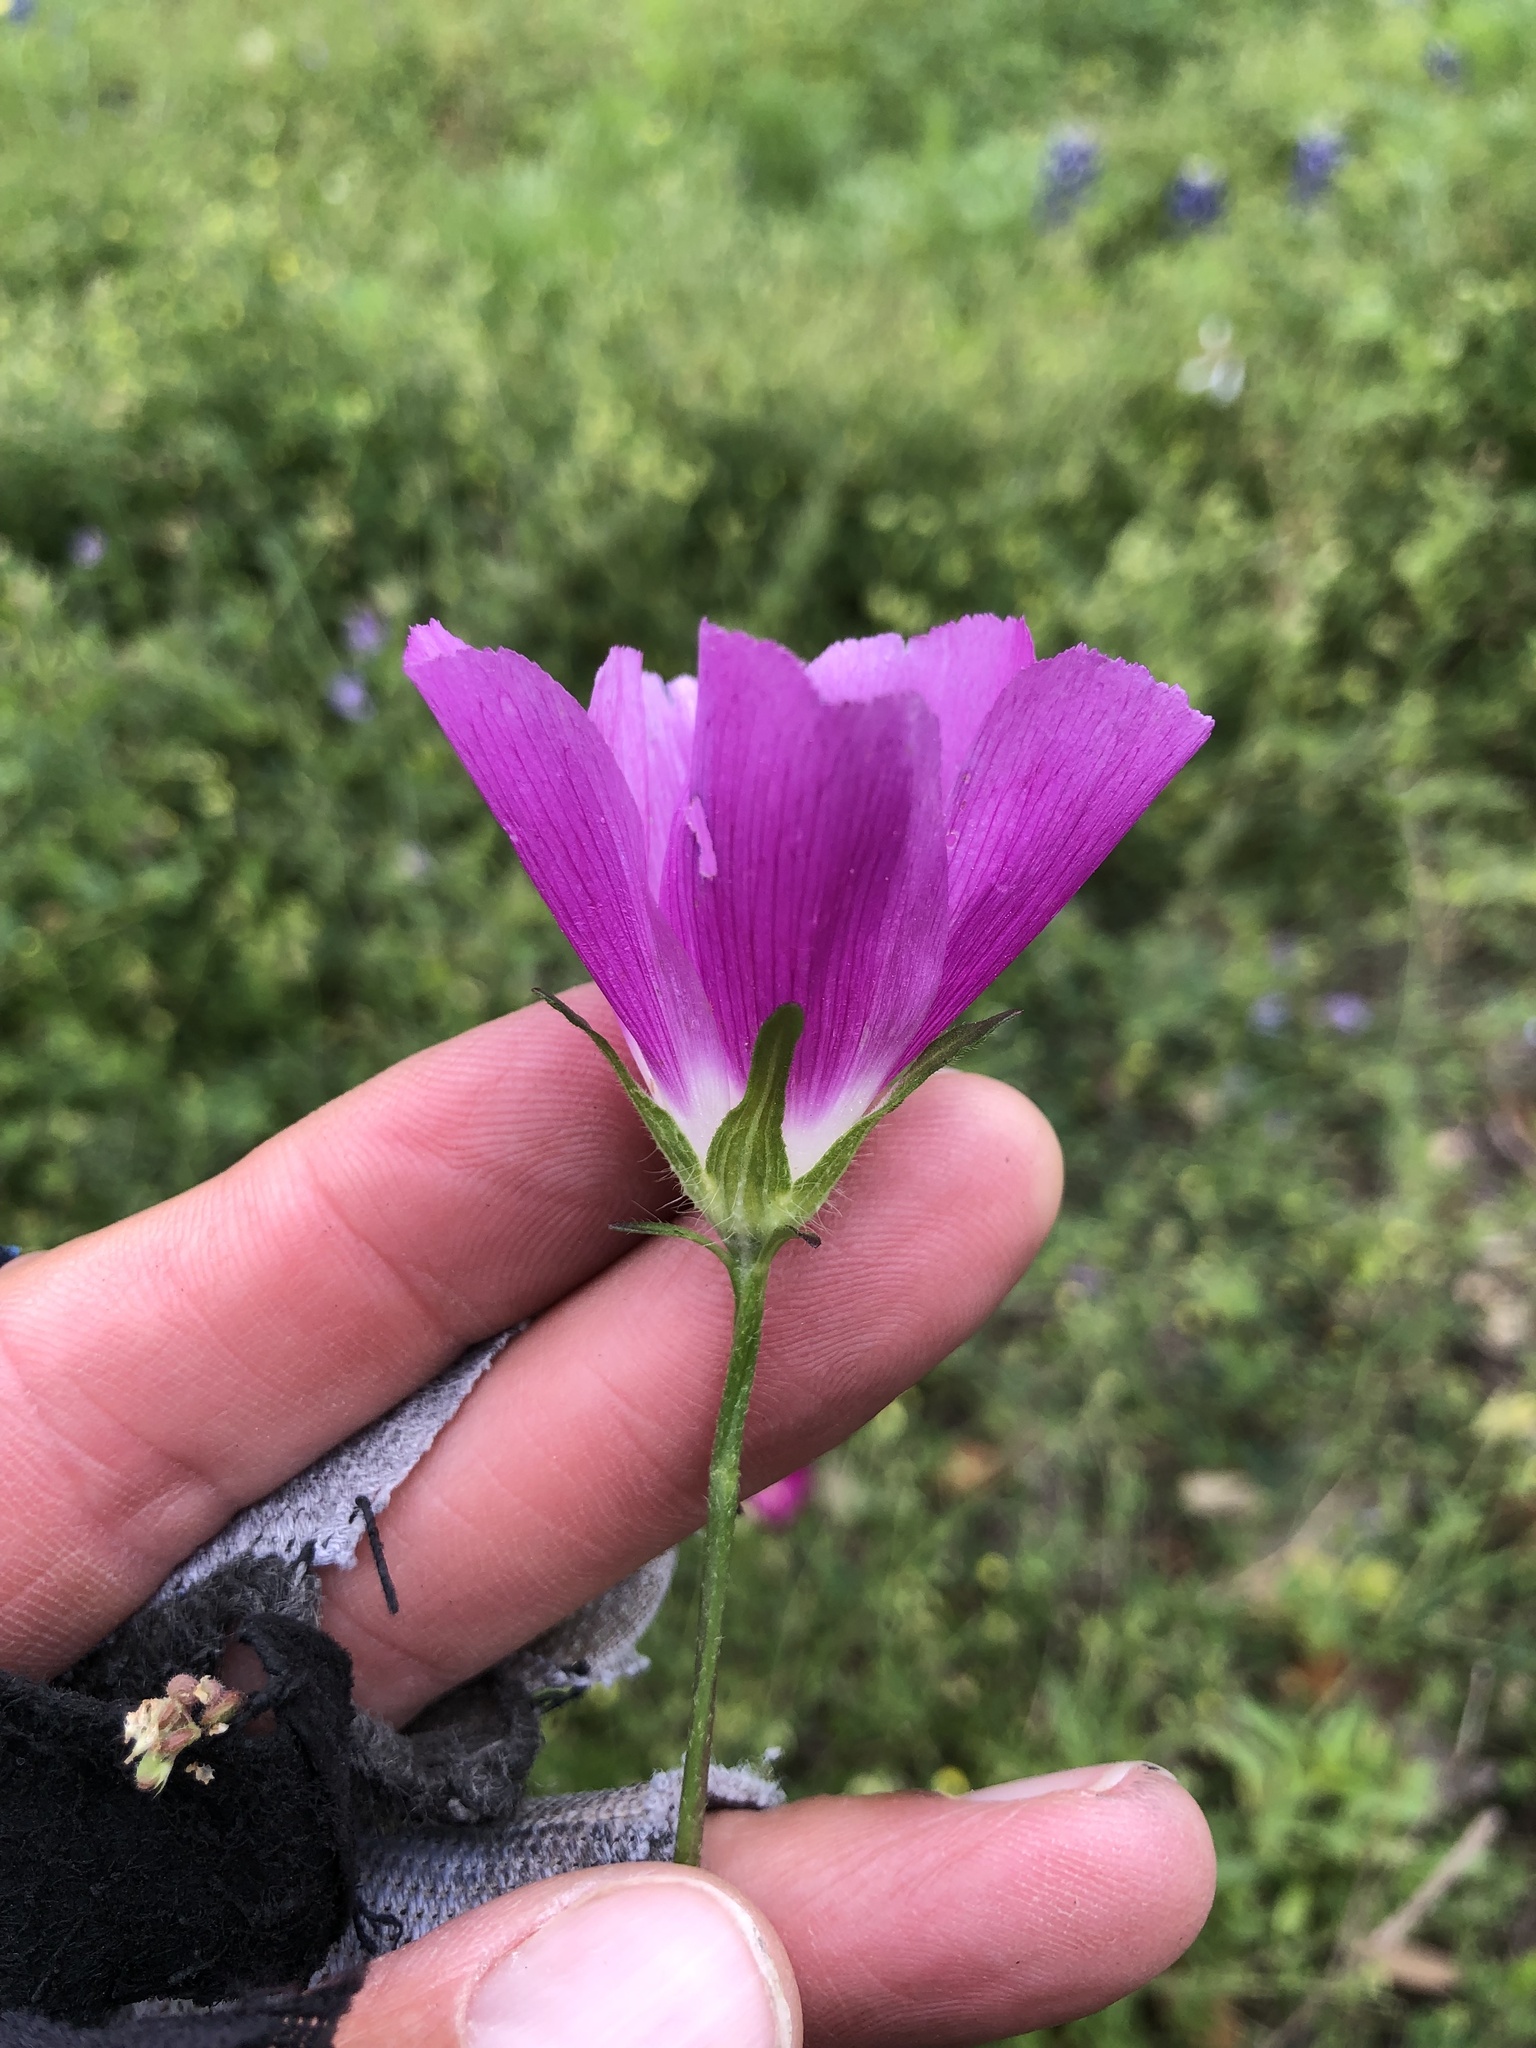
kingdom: Plantae
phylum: Tracheophyta
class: Magnoliopsida
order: Malvales
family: Malvaceae
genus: Callirhoe
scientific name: Callirhoe involucrata
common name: Purple poppy-mallow
